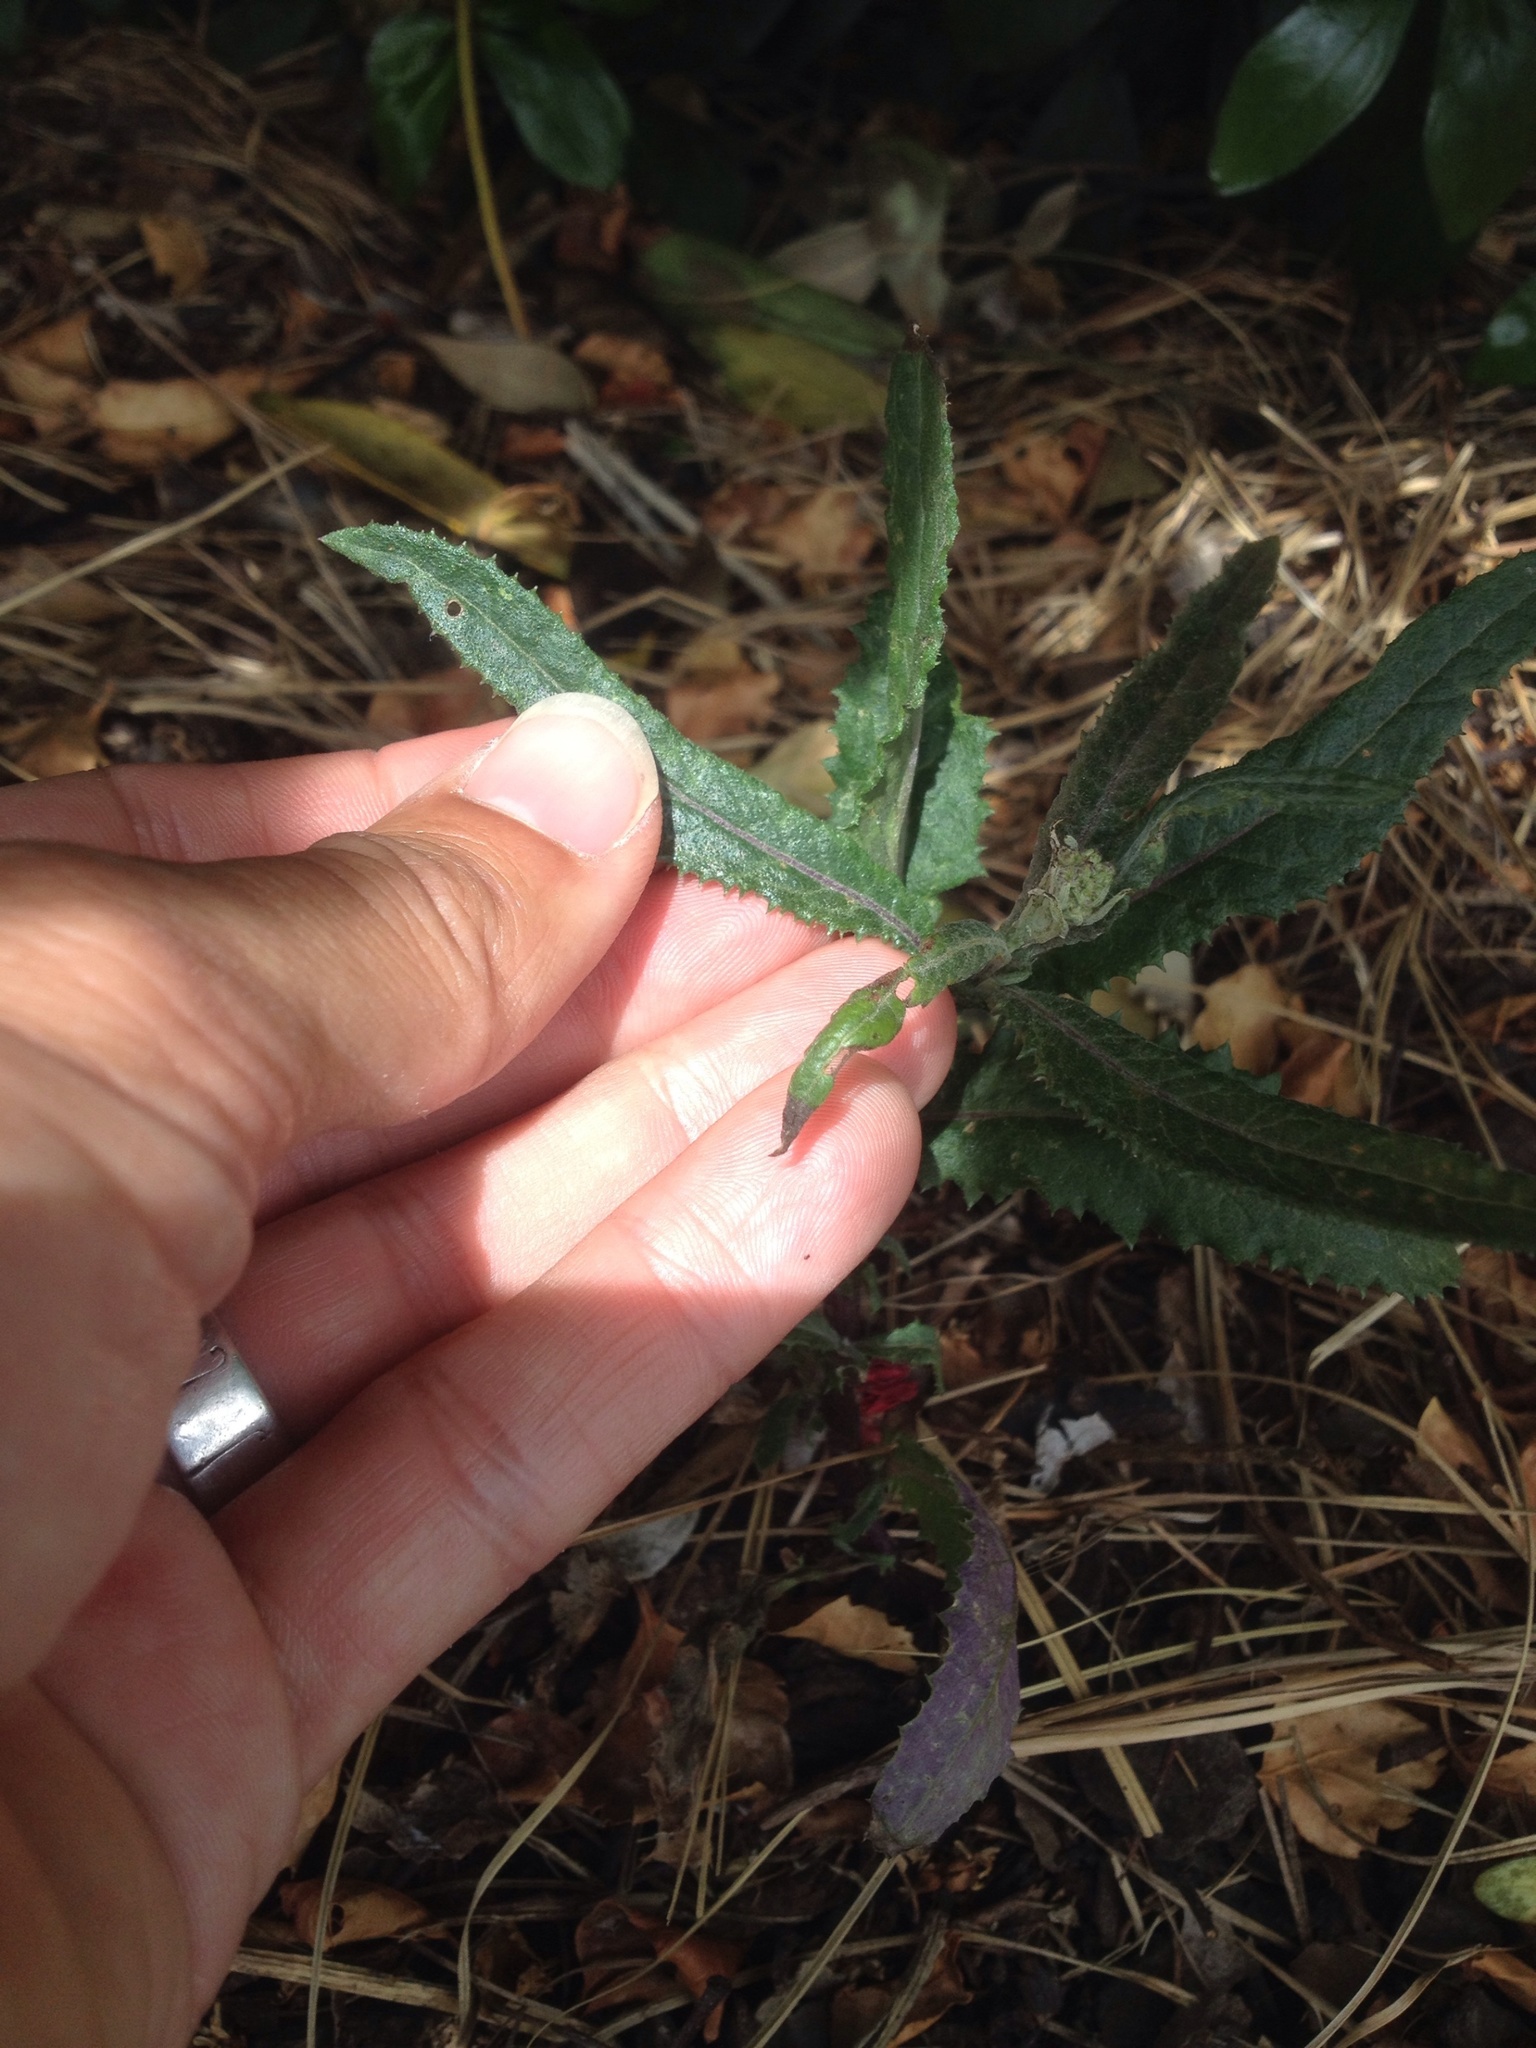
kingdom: Plantae
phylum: Tracheophyta
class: Magnoliopsida
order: Asterales
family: Asteraceae
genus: Senecio
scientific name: Senecio minimus
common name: Toothed fireweed
